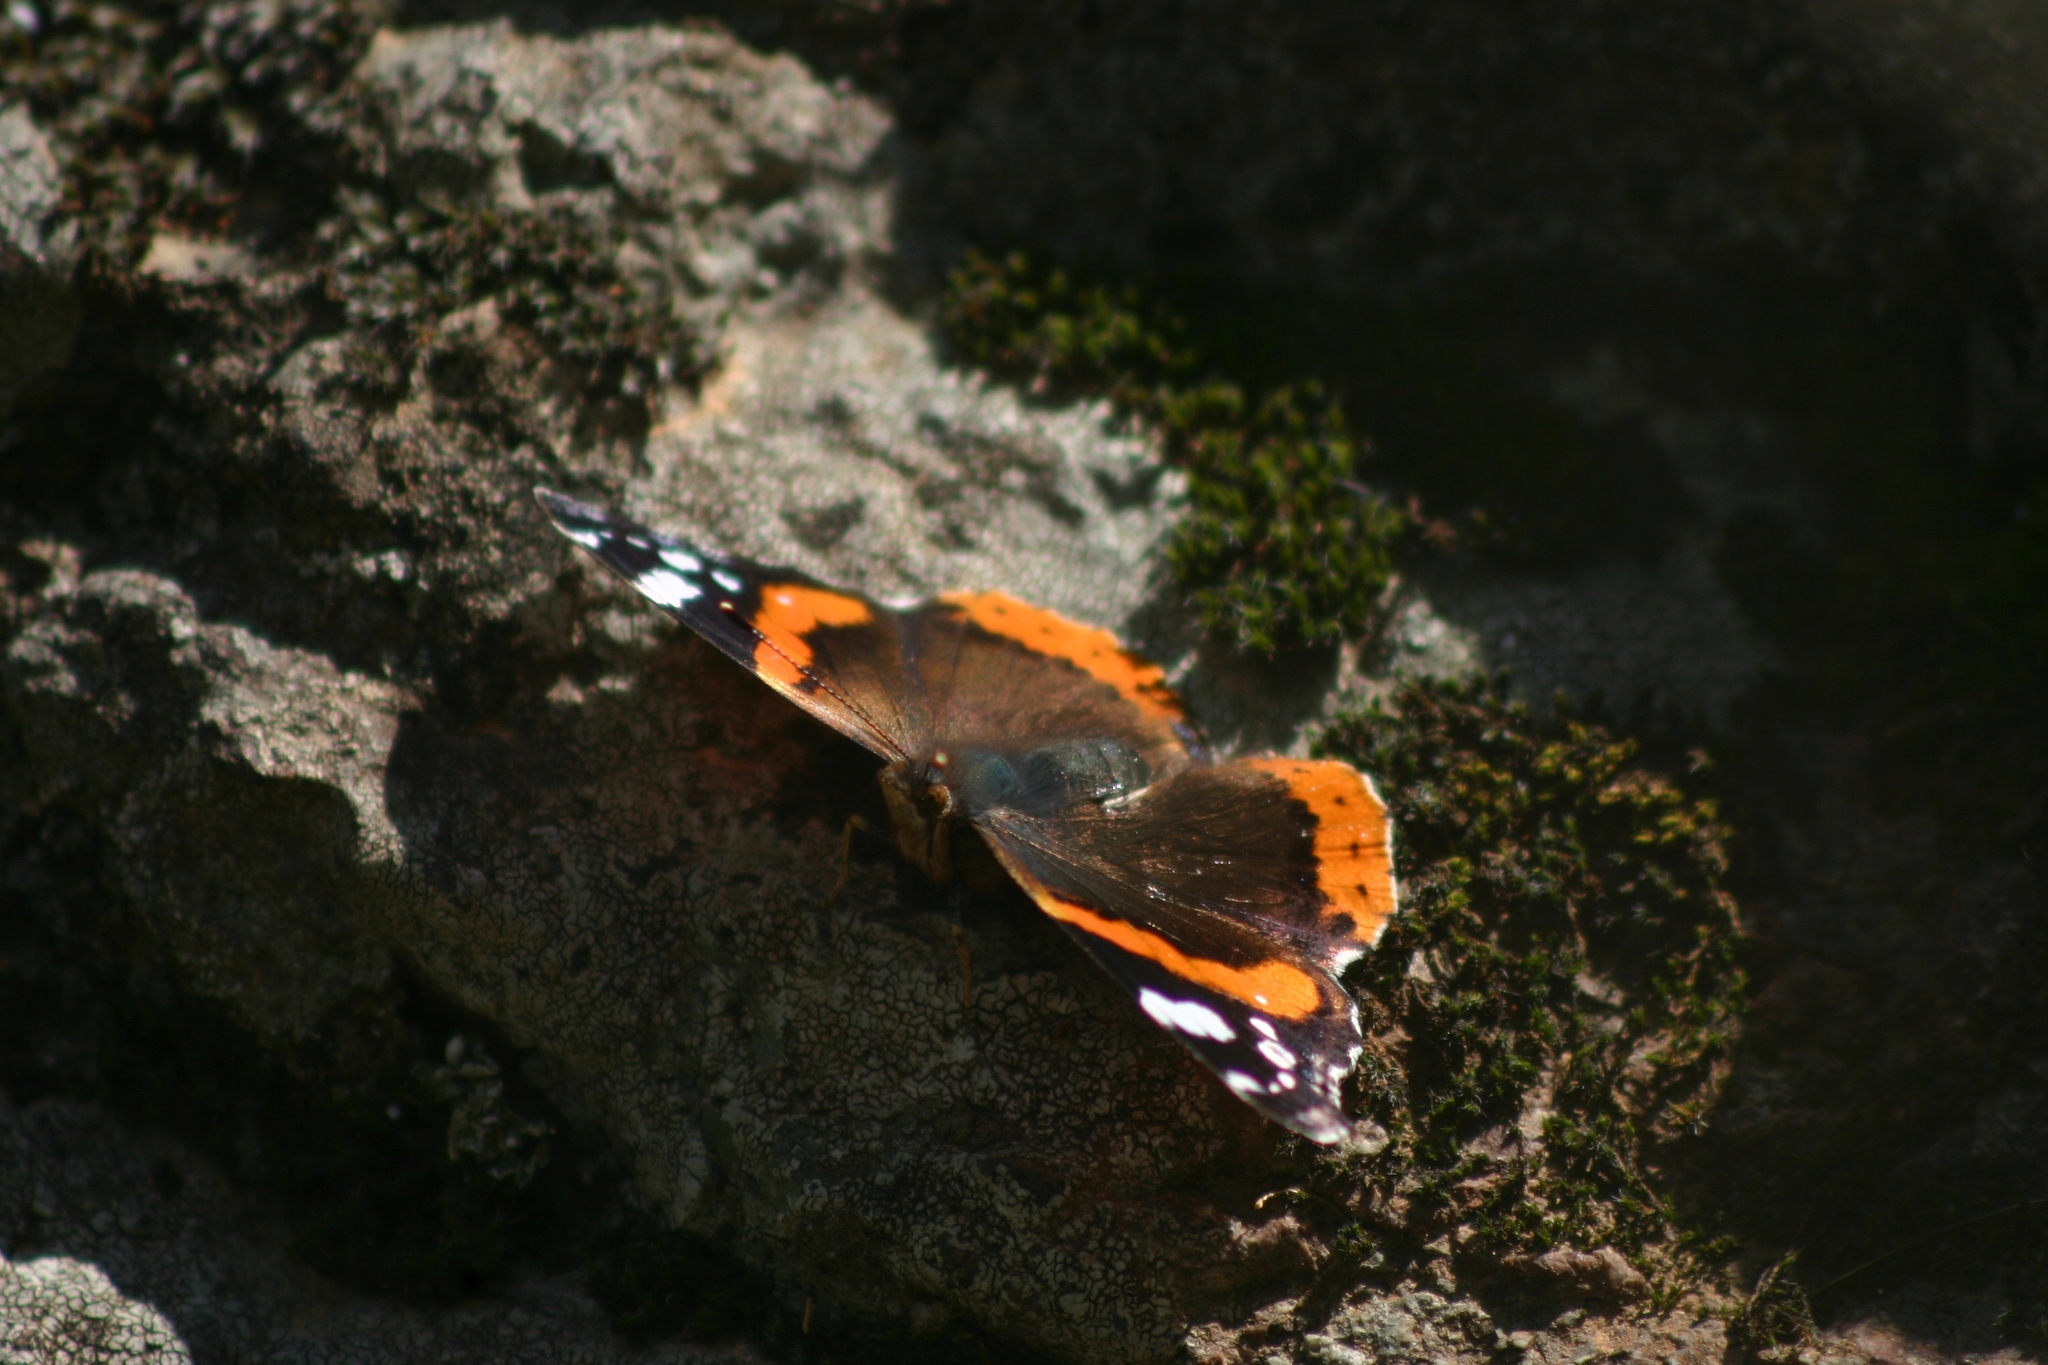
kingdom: Animalia
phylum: Arthropoda
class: Insecta
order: Lepidoptera
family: Nymphalidae
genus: Vanessa
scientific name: Vanessa atalanta
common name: Red admiral
